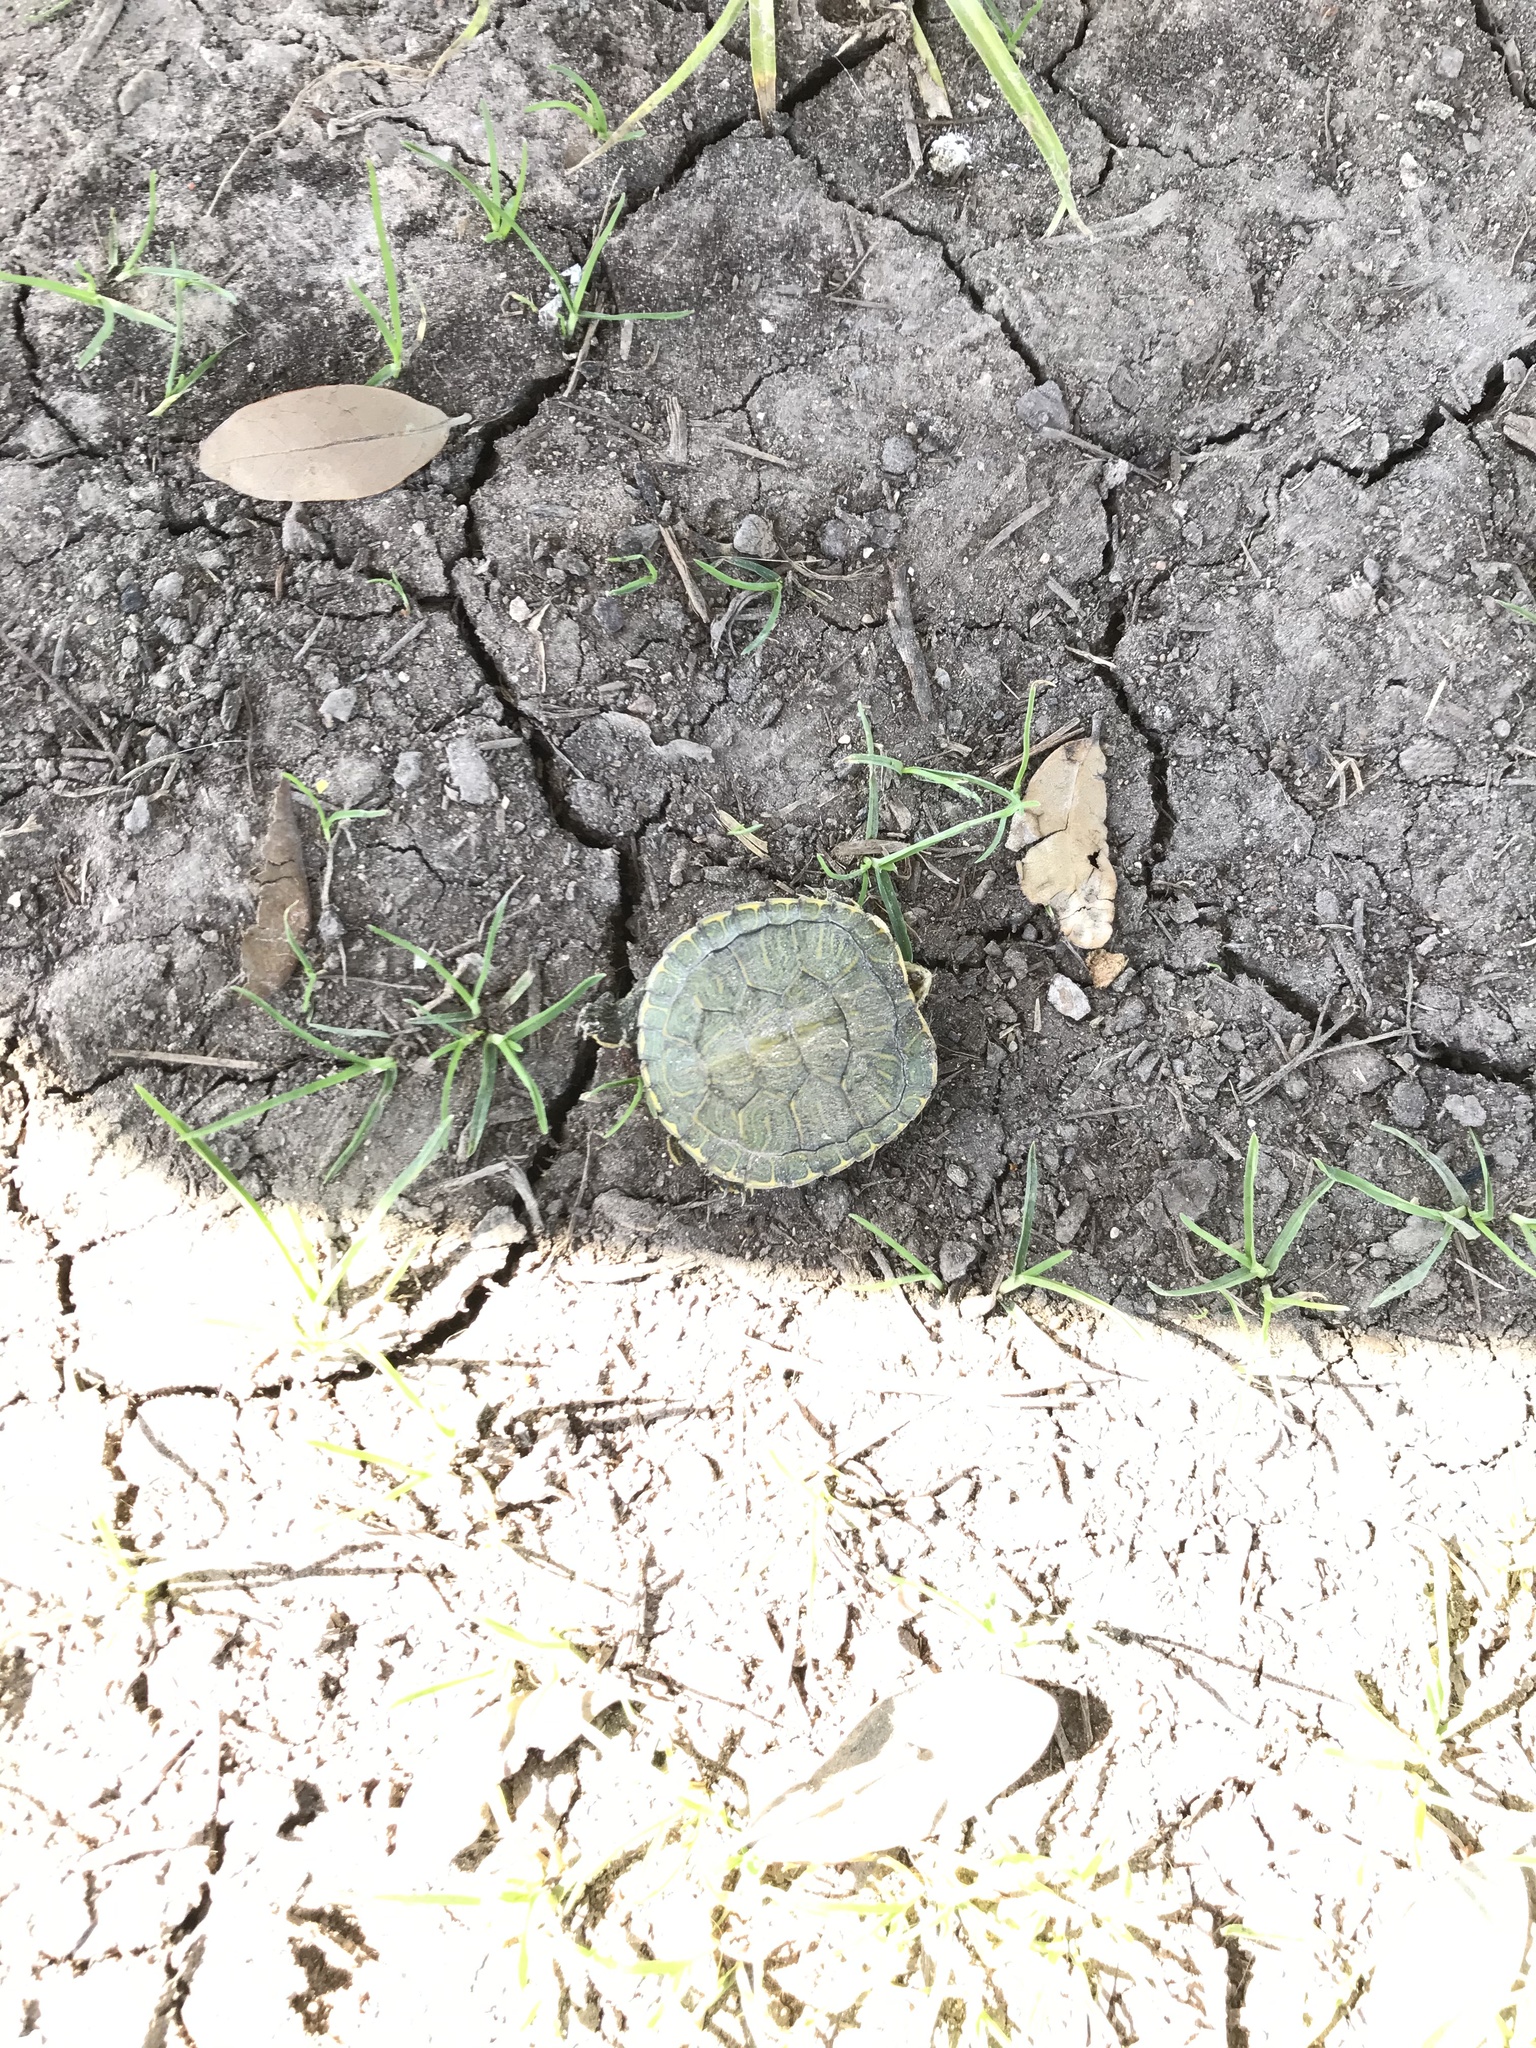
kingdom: Animalia
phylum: Chordata
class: Testudines
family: Emydidae
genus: Trachemys
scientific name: Trachemys scripta
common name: Slider
